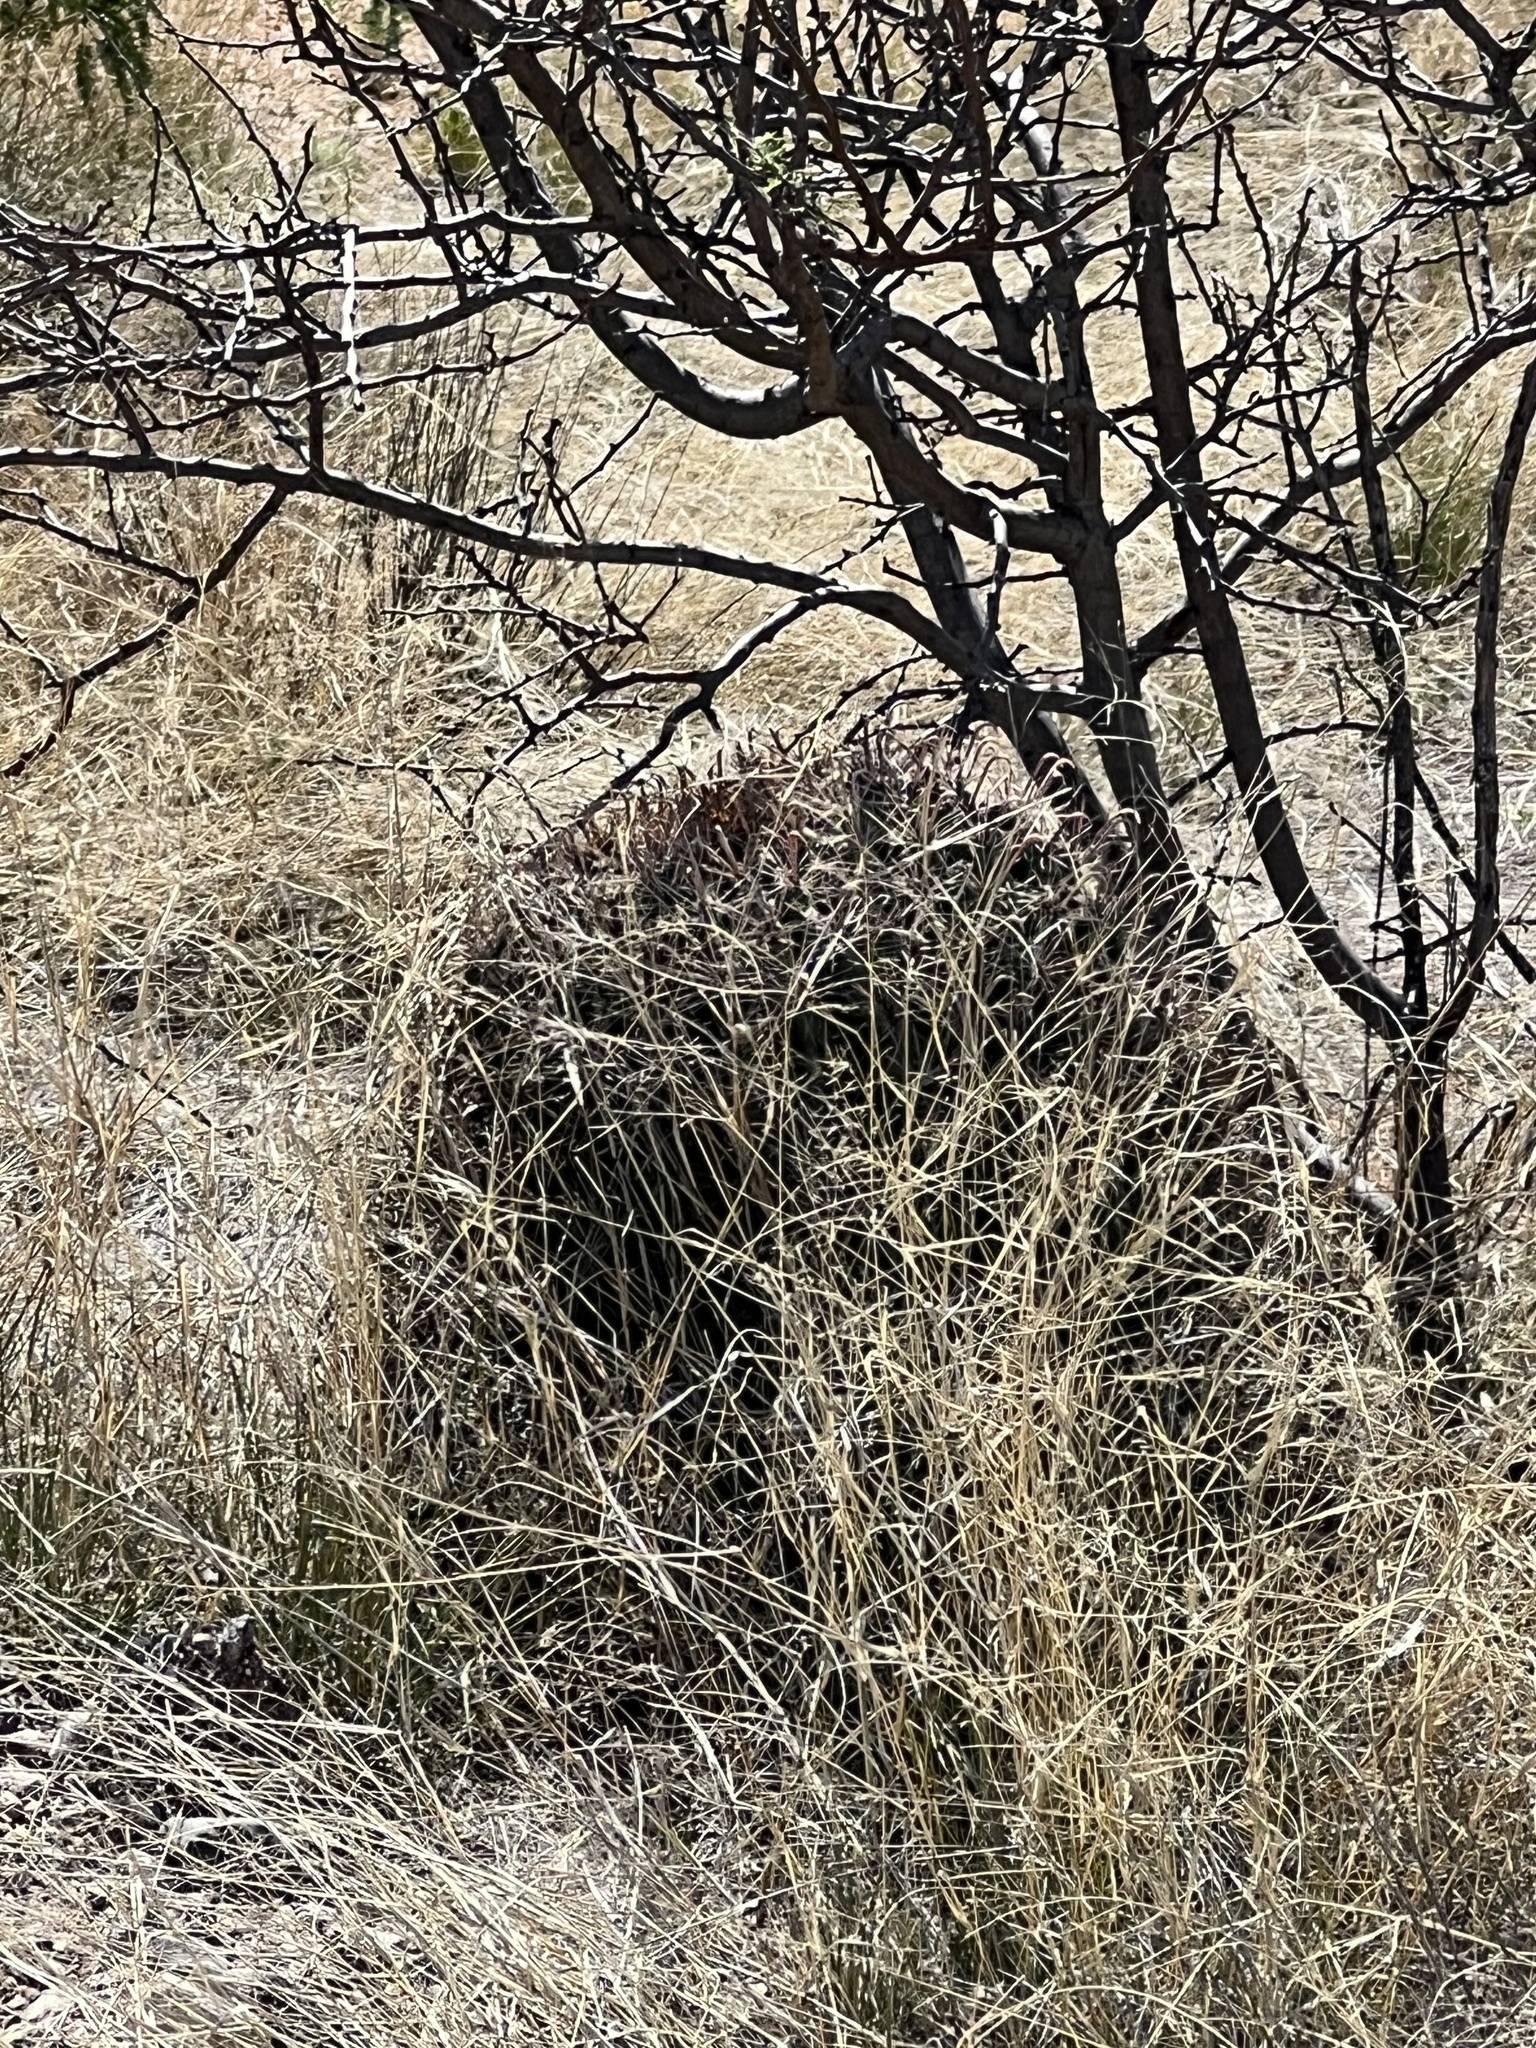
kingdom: Plantae
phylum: Tracheophyta
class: Magnoliopsida
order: Caryophyllales
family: Cactaceae
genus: Ferocactus
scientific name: Ferocactus wislizeni
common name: Candy barrel cactus
